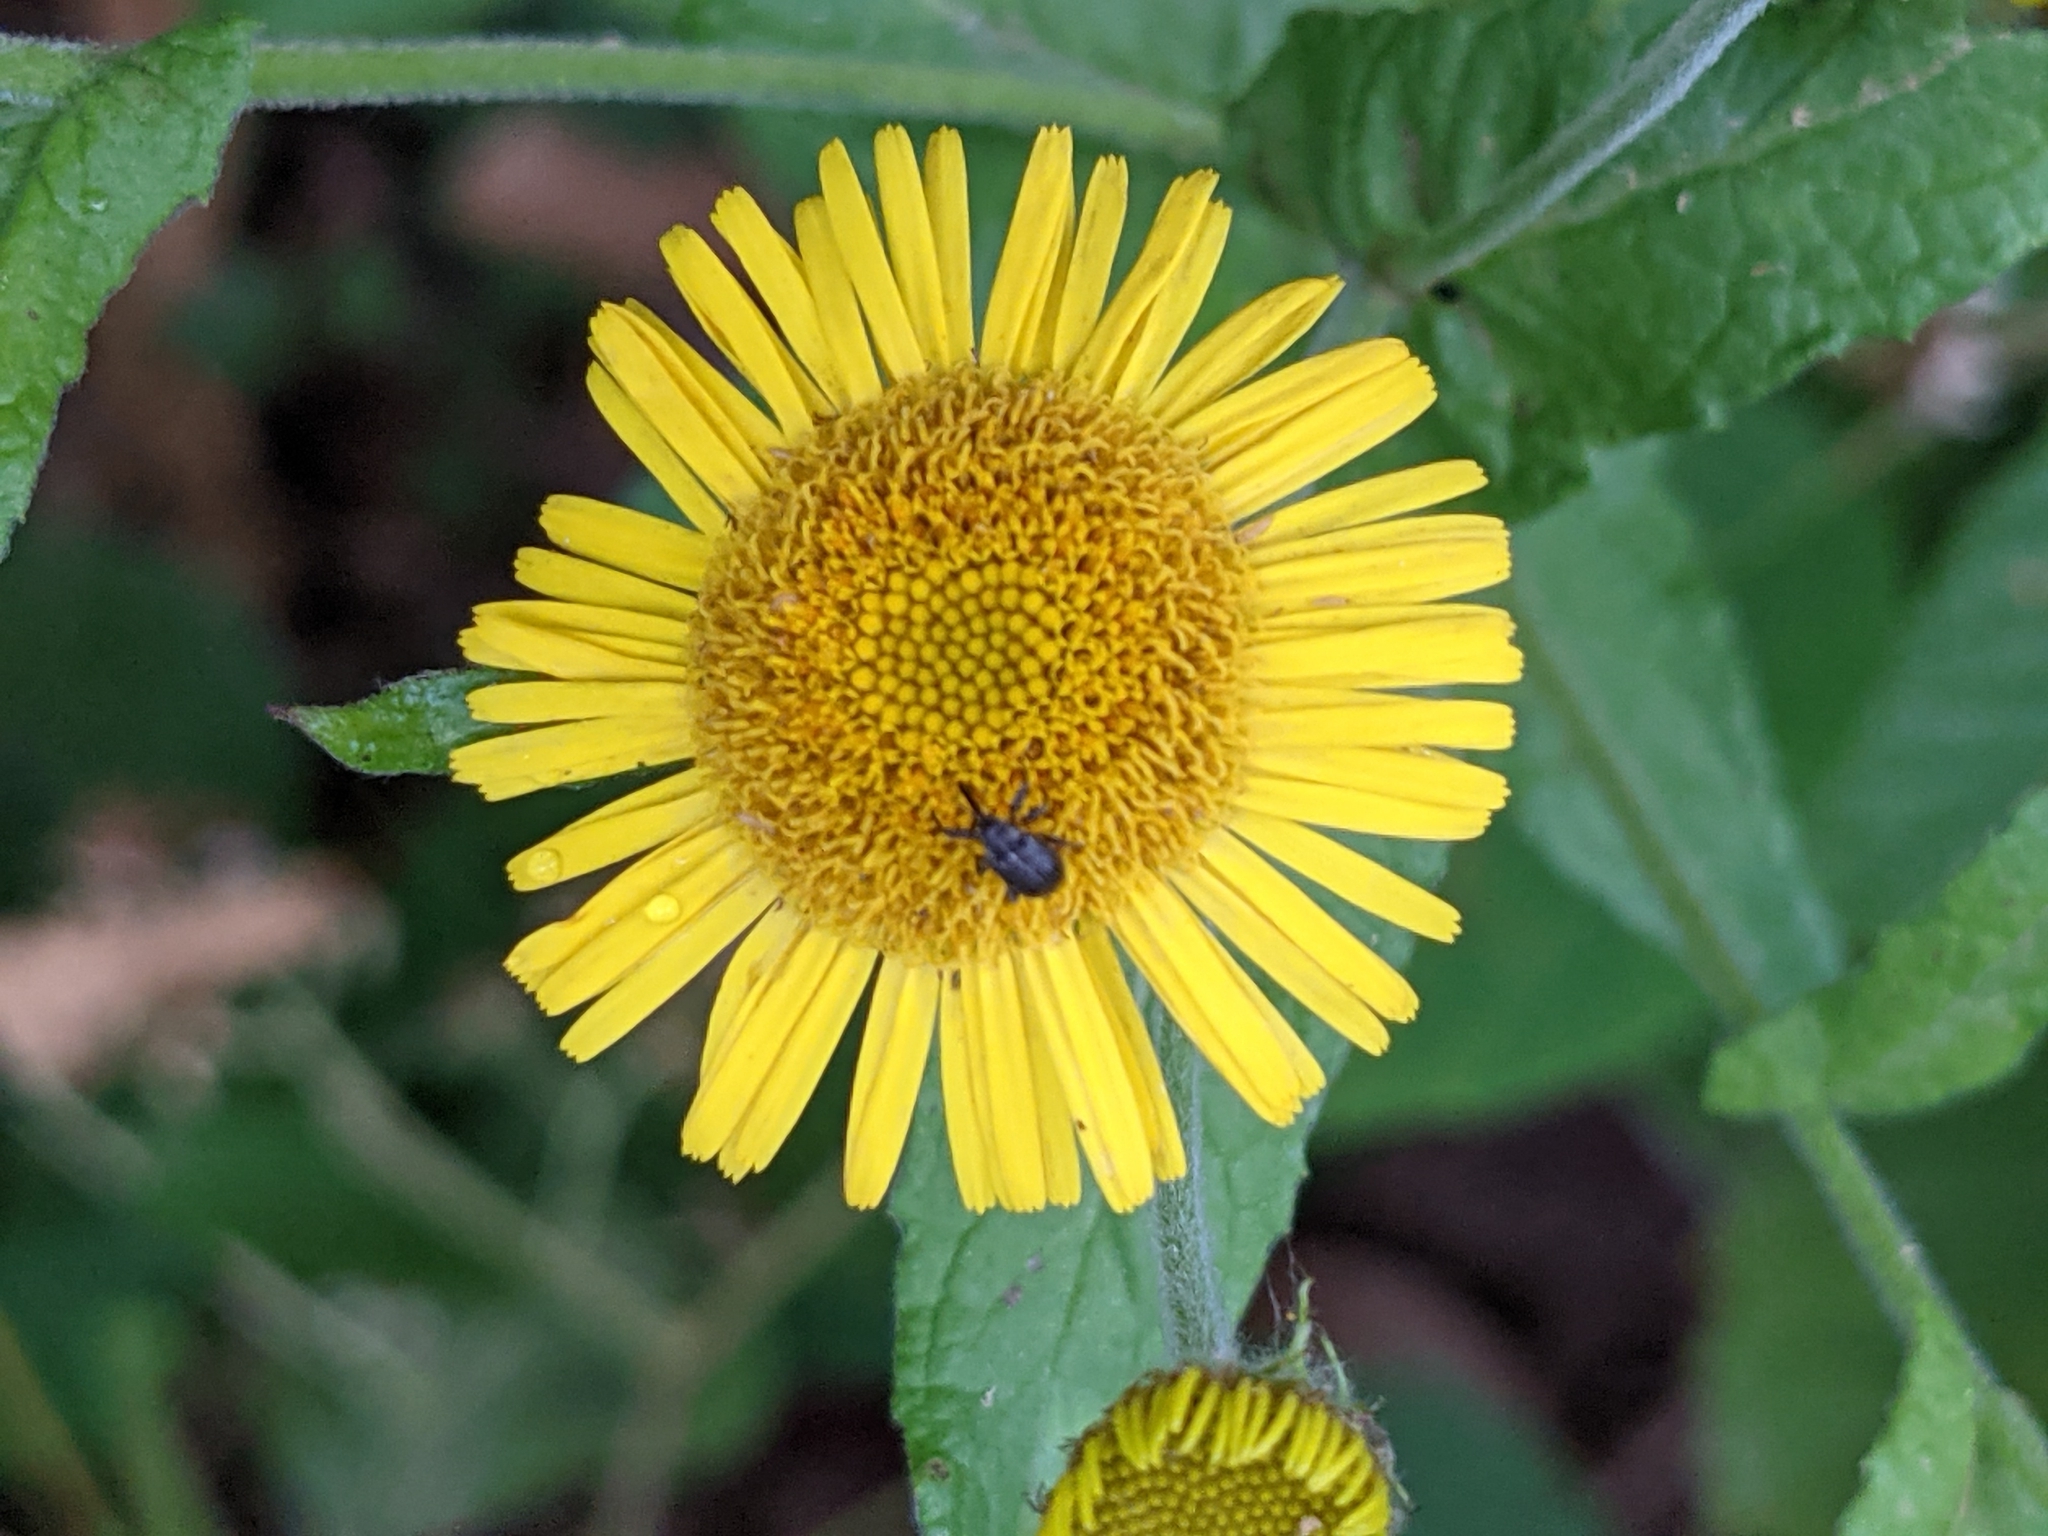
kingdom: Plantae
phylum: Tracheophyta
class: Magnoliopsida
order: Asterales
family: Asteraceae
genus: Pulicaria
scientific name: Pulicaria dysenterica
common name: Common fleabane
